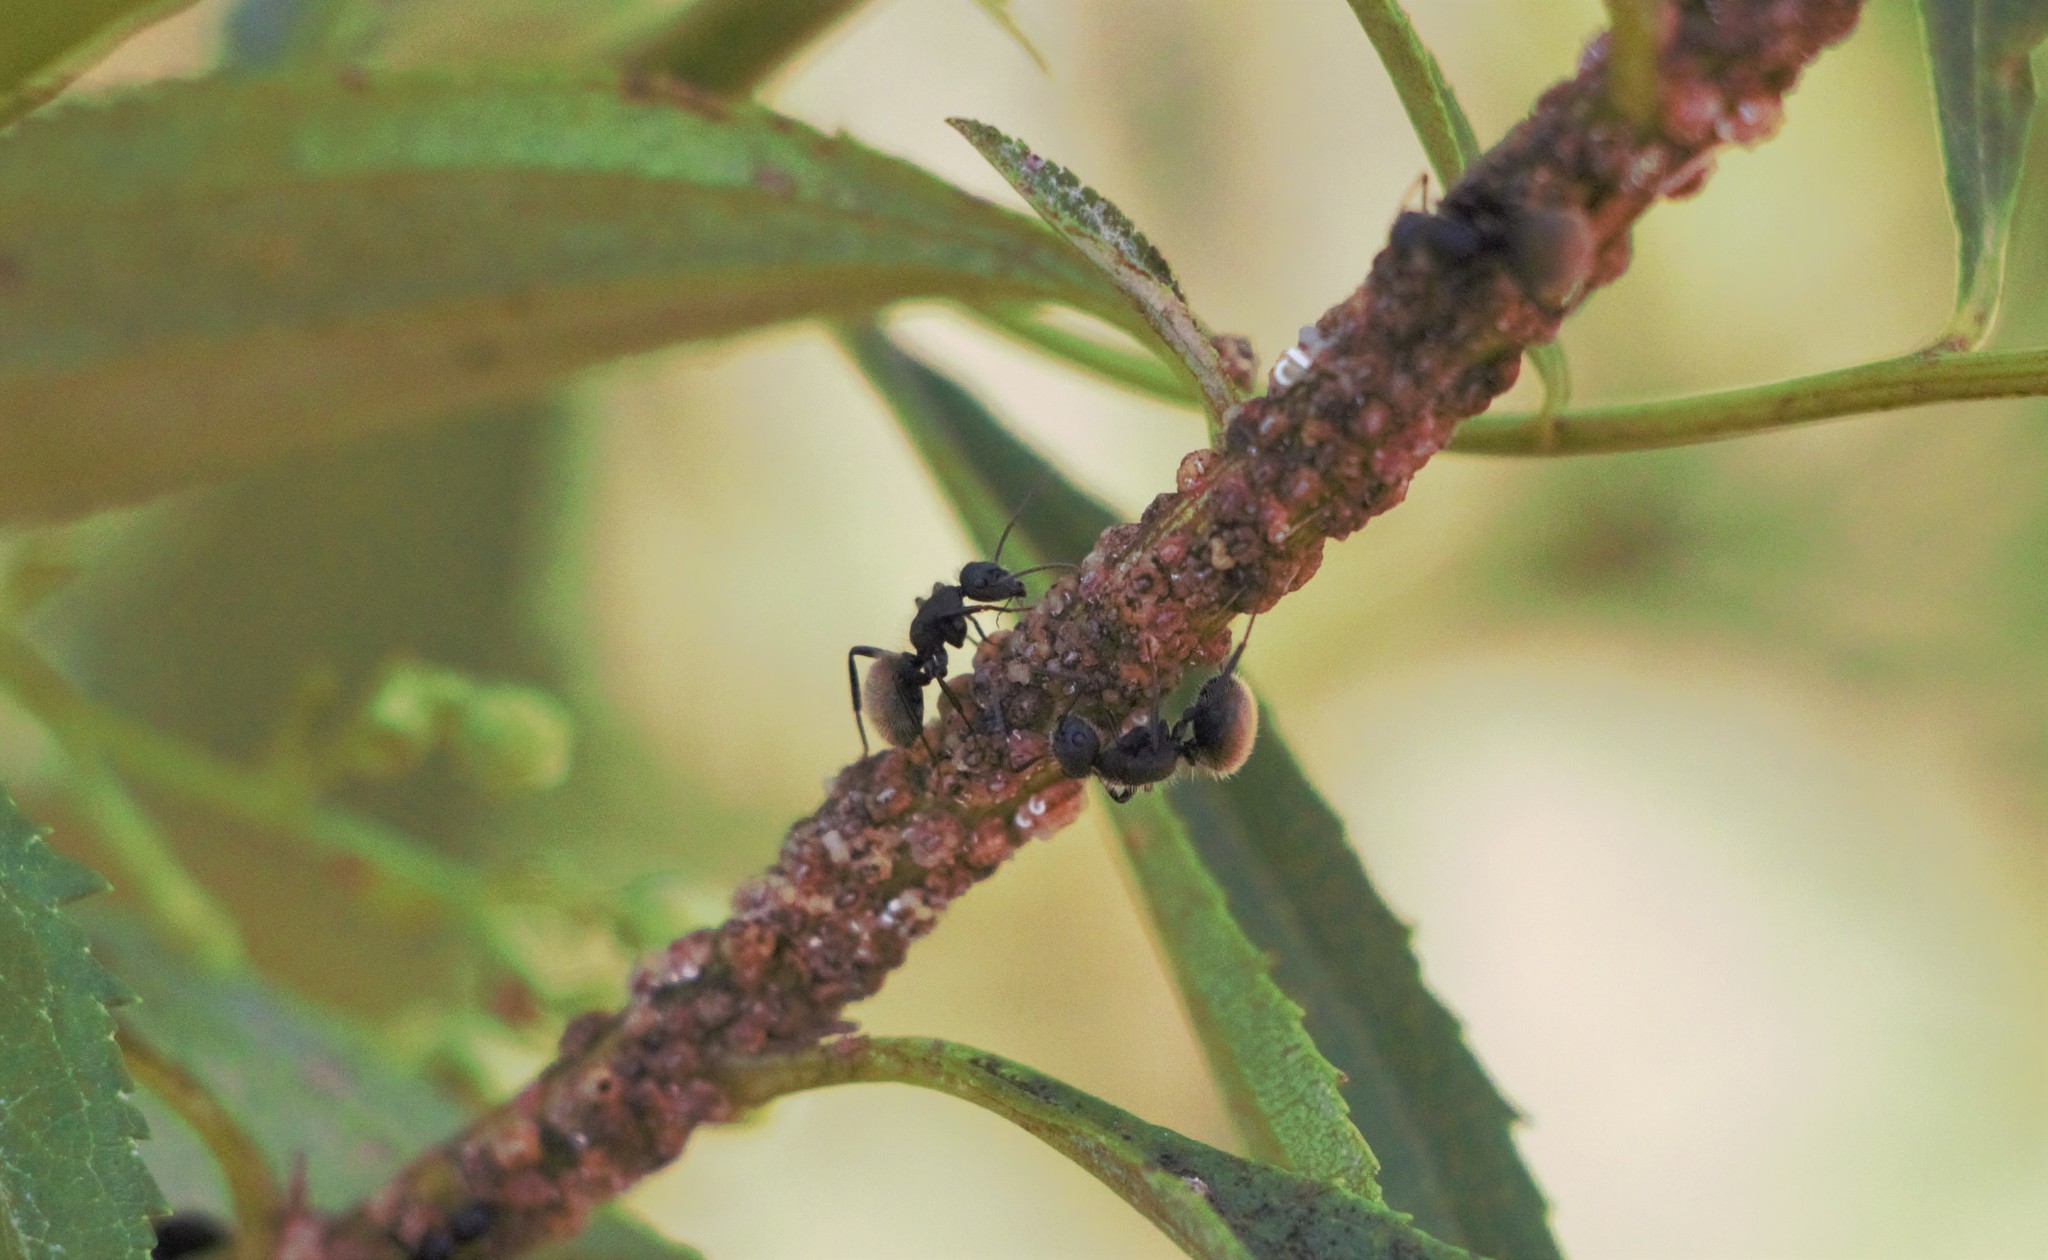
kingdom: Animalia
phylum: Arthropoda
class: Insecta
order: Hymenoptera
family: Formicidae
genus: Camponotus
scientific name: Camponotus mus
